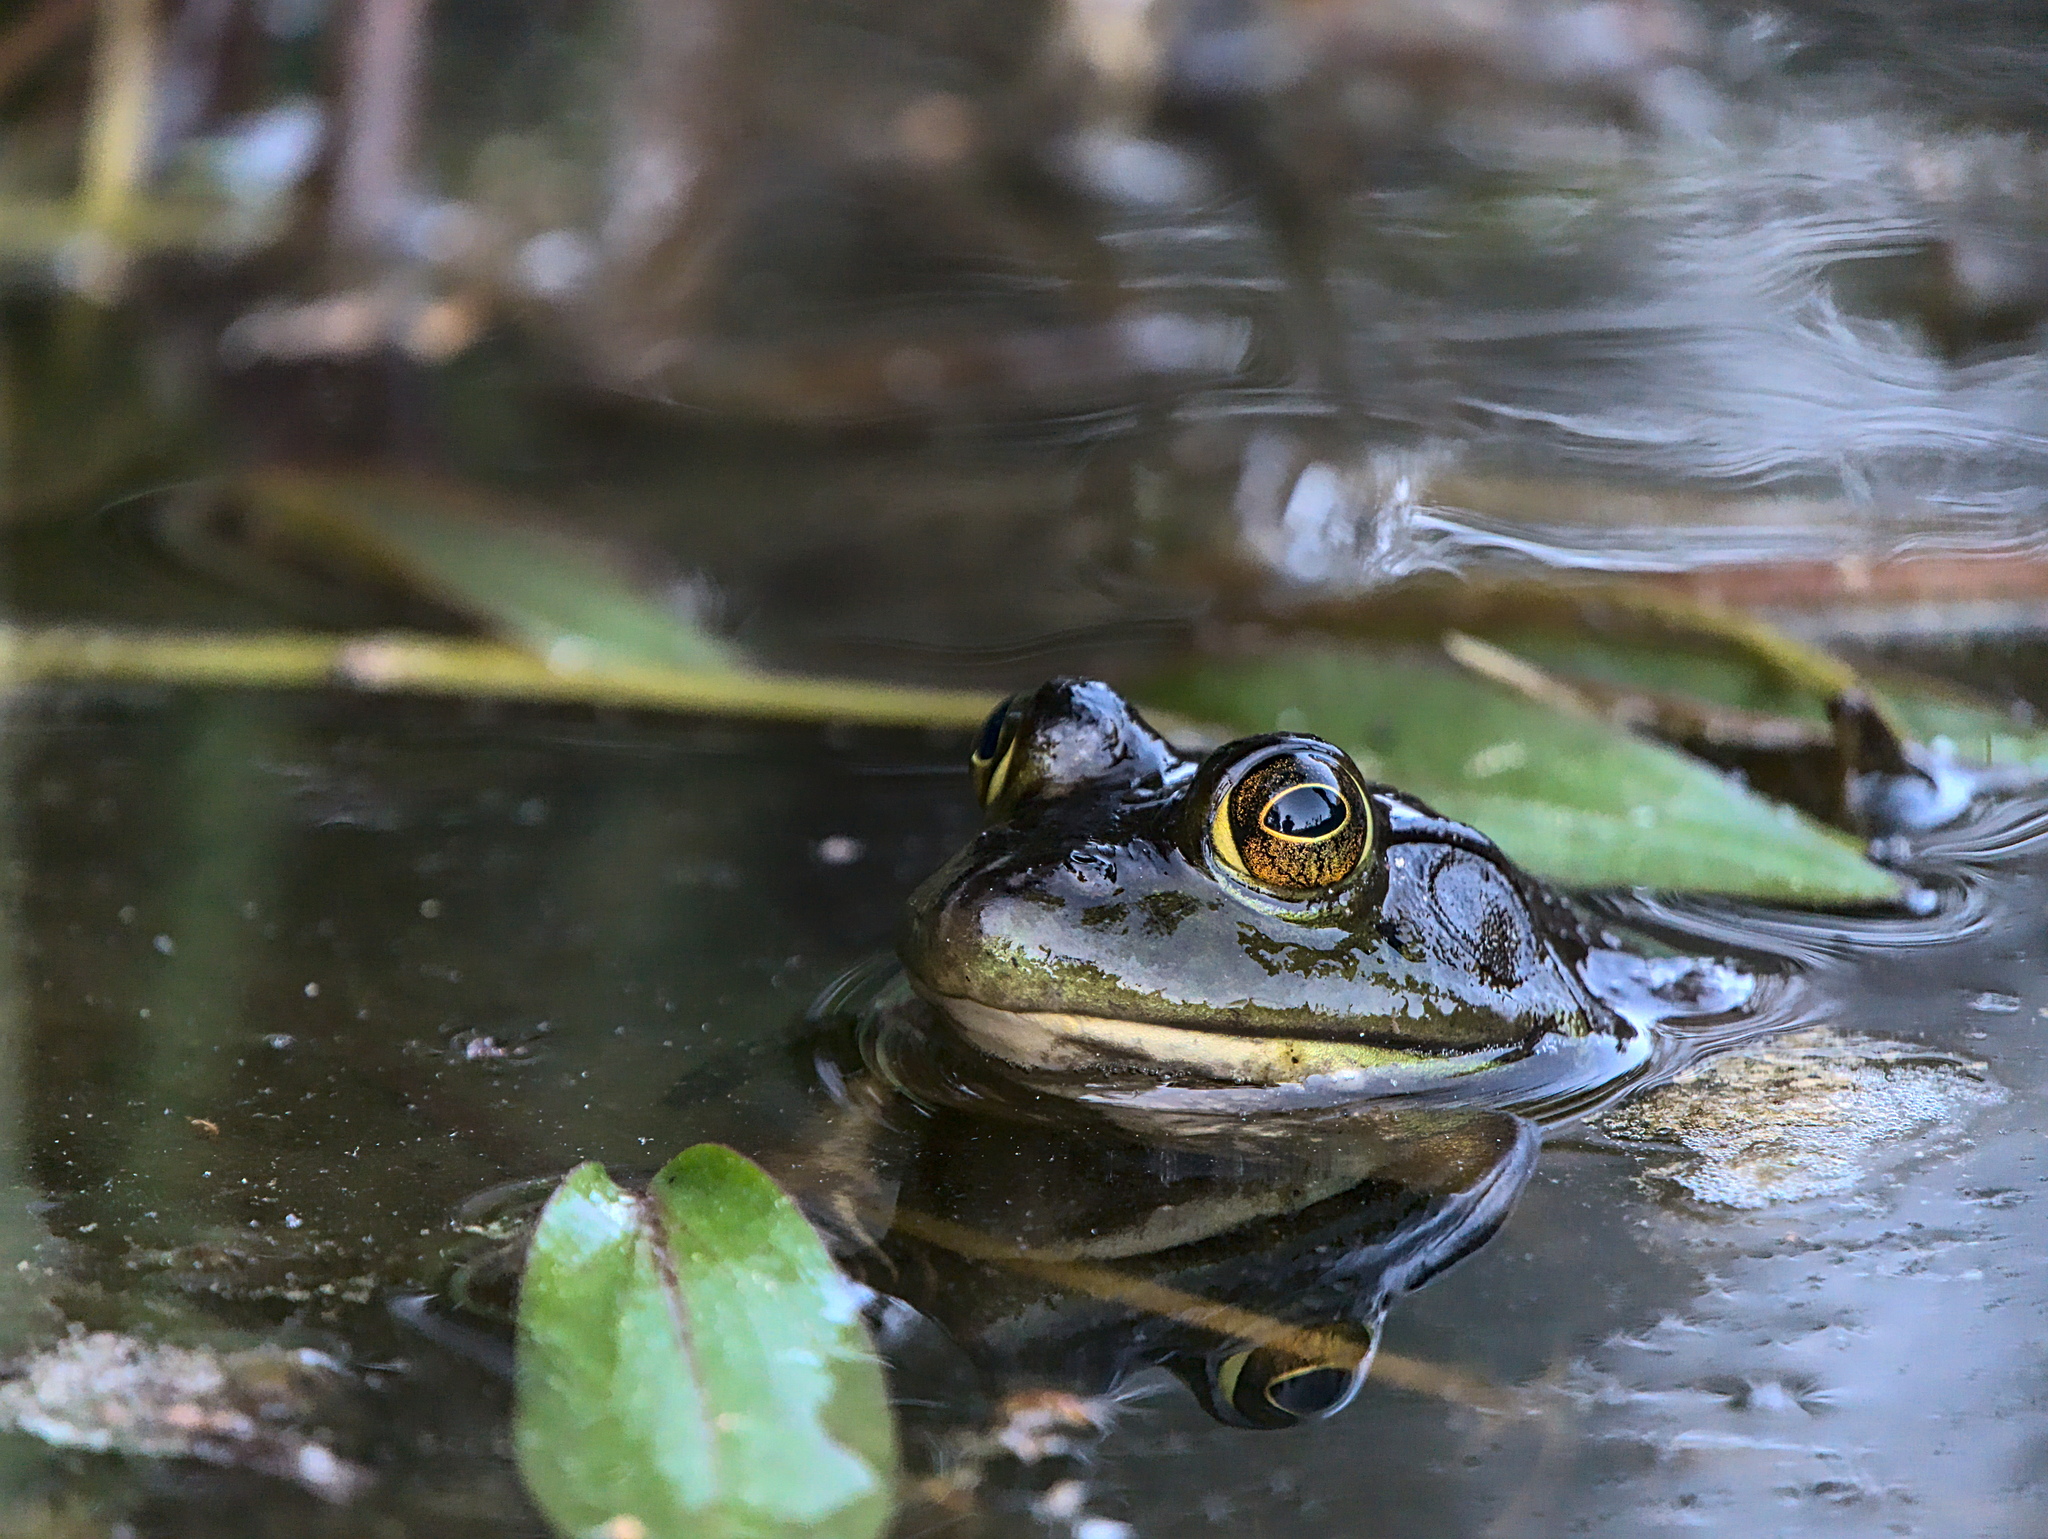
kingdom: Animalia
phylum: Chordata
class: Amphibia
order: Anura
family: Ranidae
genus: Lithobates
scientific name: Lithobates catesbeianus
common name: American bullfrog
